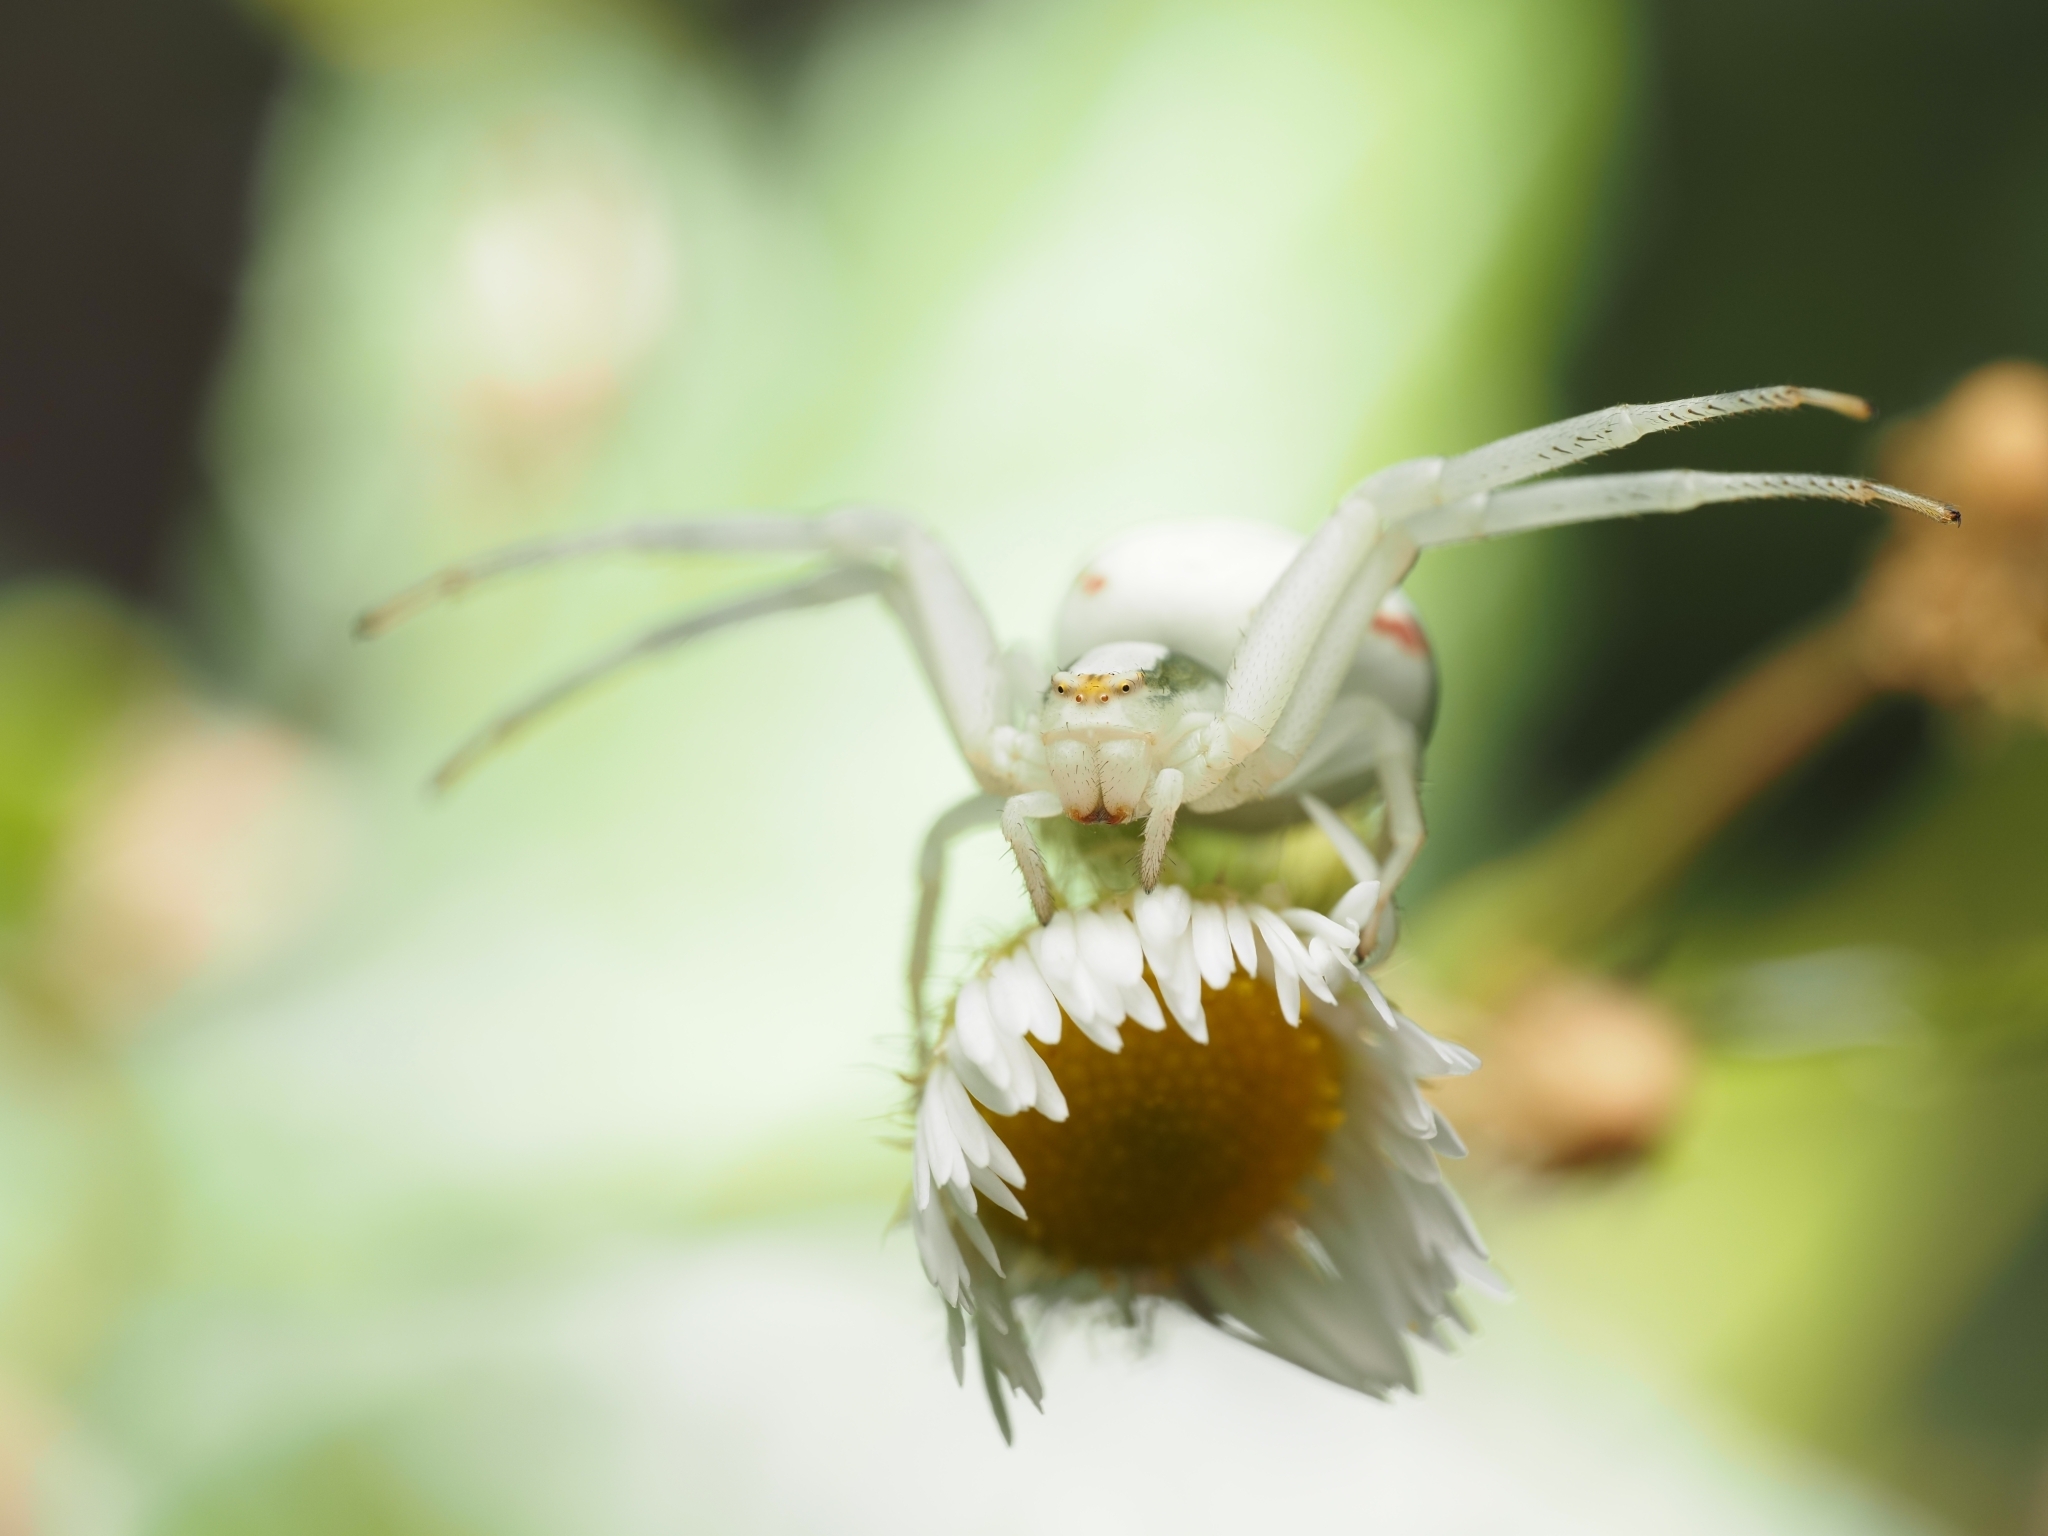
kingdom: Animalia
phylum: Arthropoda
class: Arachnida
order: Araneae
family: Thomisidae
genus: Misumena
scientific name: Misumena vatia
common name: Goldenrod crab spider
